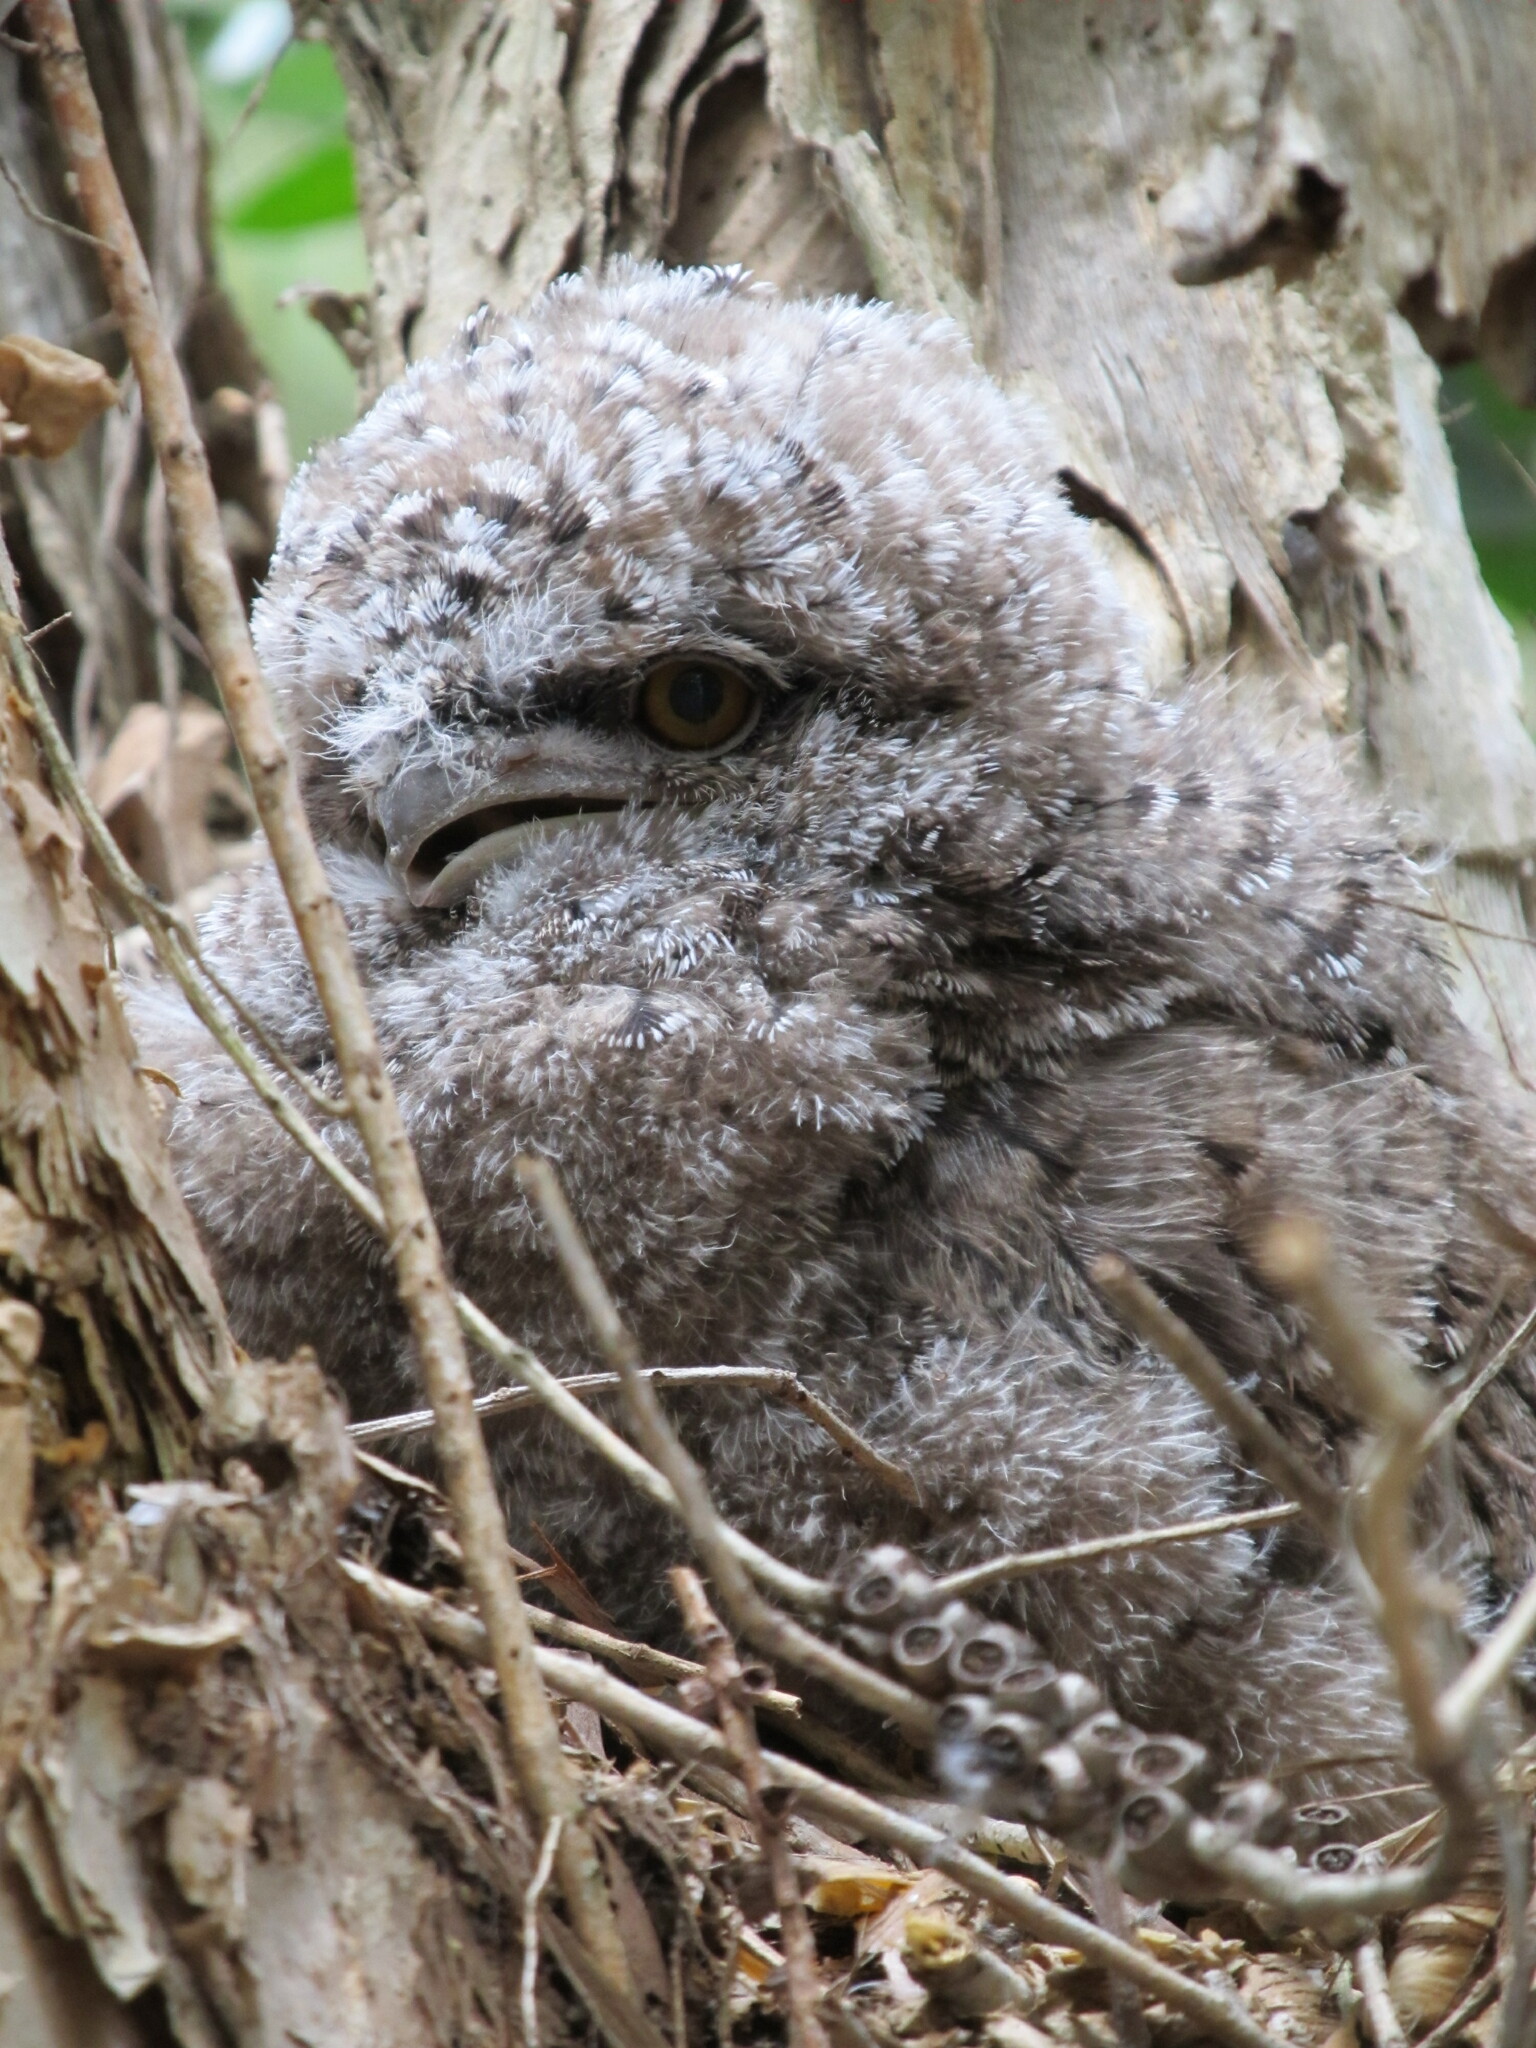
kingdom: Animalia
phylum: Chordata
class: Aves
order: Caprimulgiformes
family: Podargidae
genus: Podargus
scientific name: Podargus strigoides
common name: Tawny frogmouth
